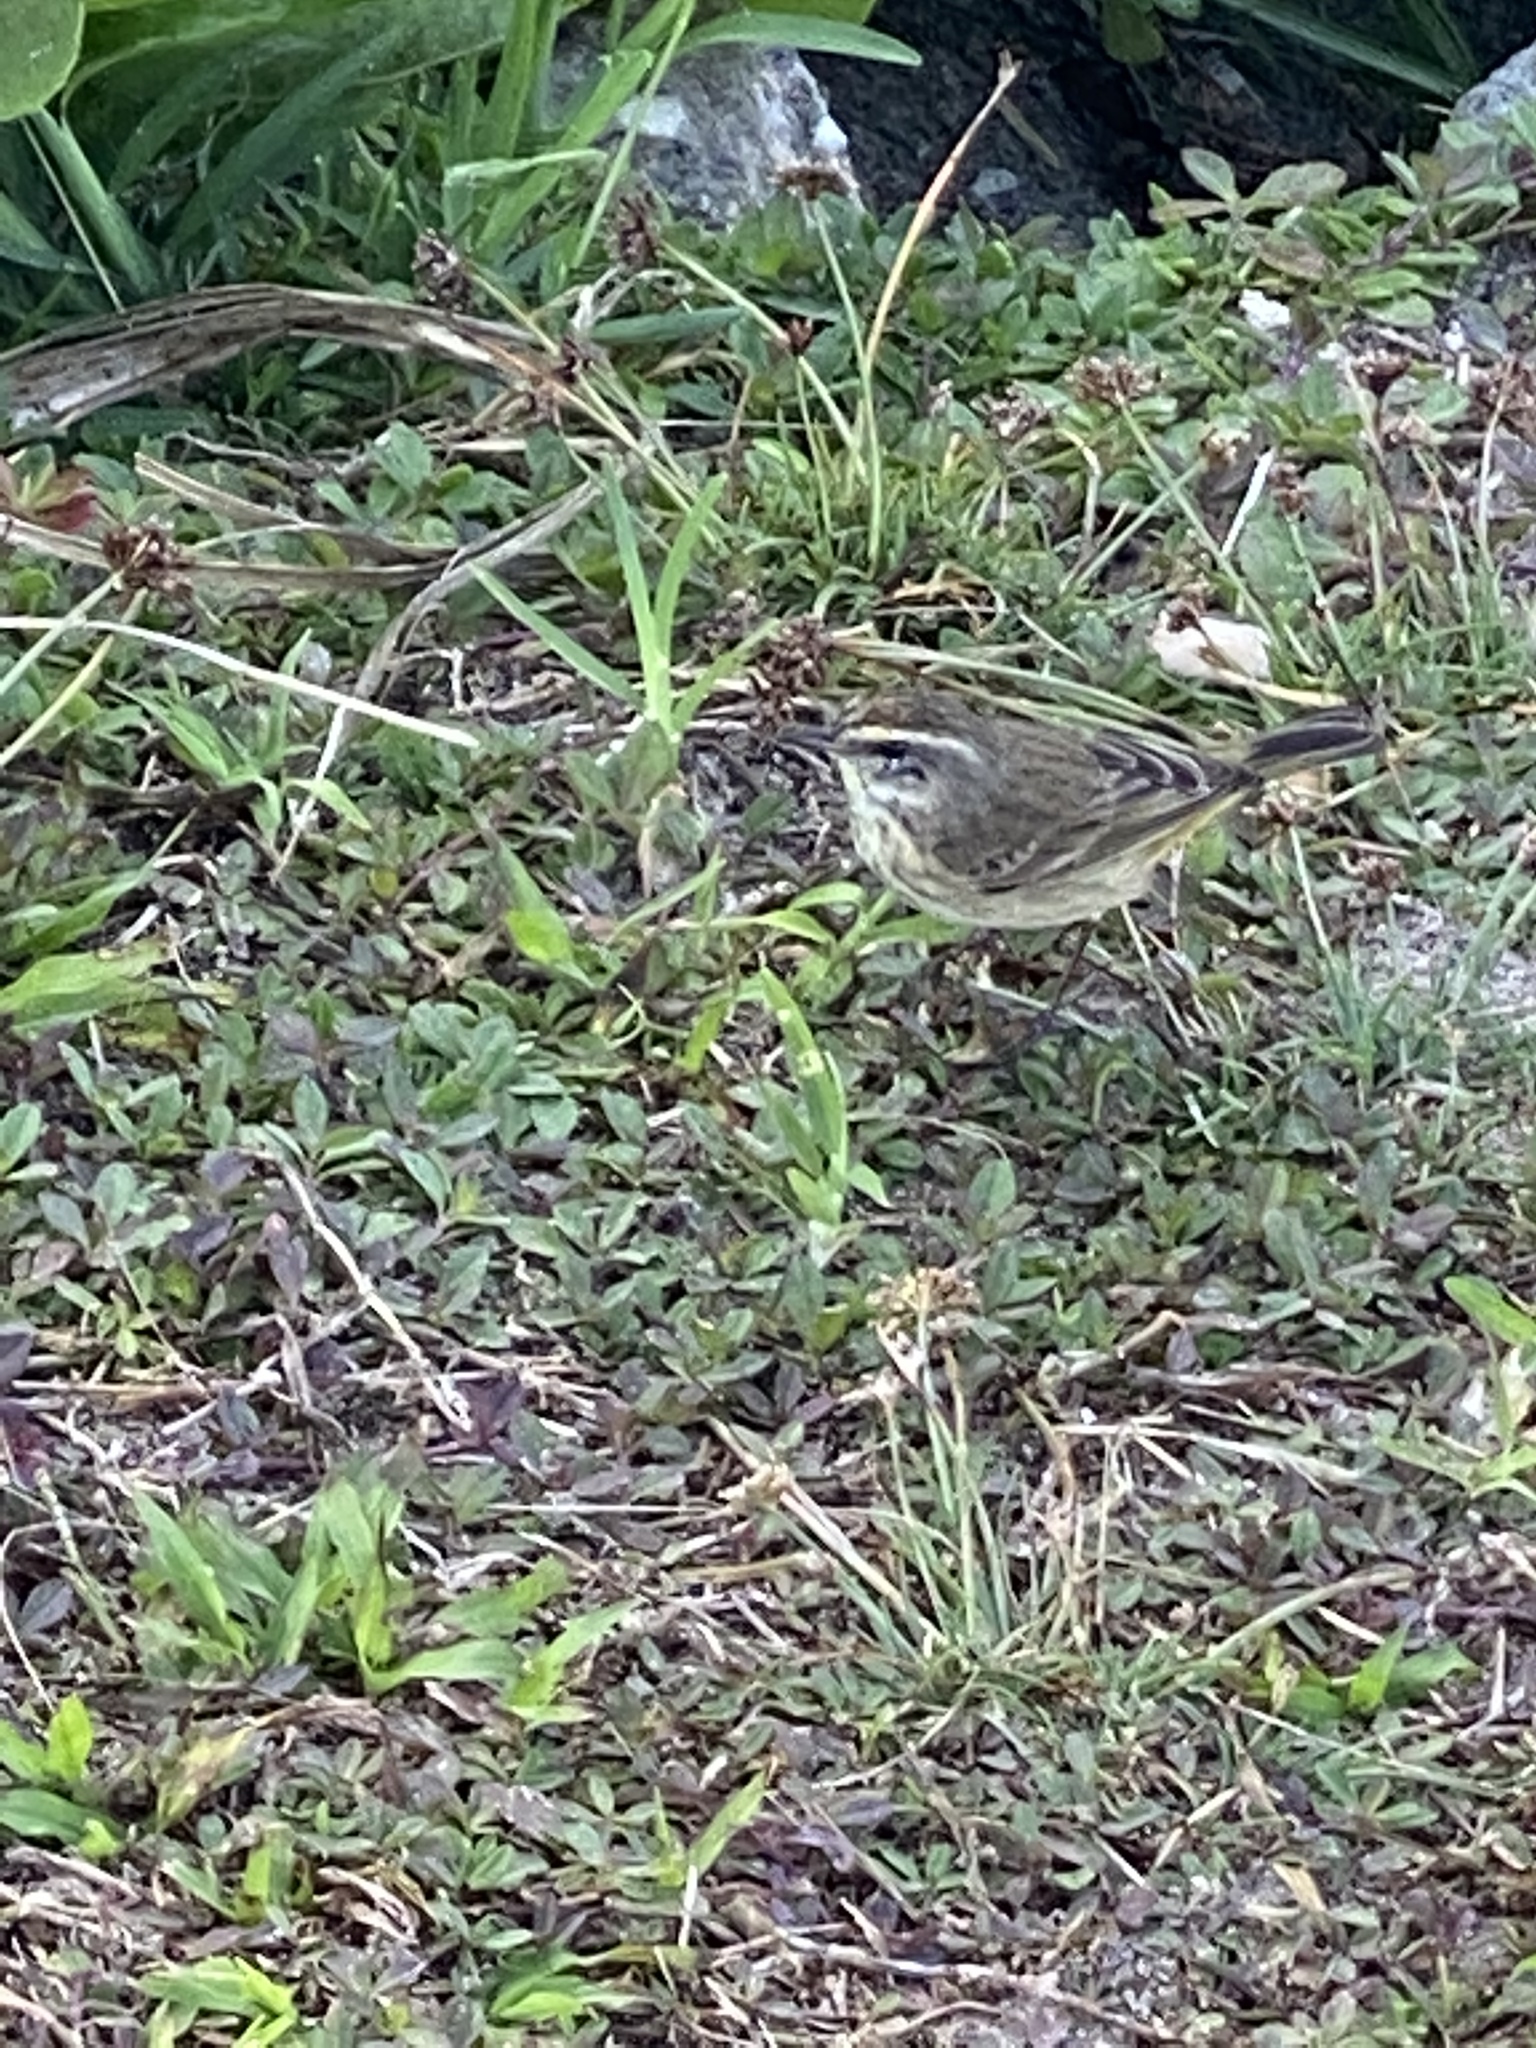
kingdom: Animalia
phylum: Chordata
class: Aves
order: Passeriformes
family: Parulidae
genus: Setophaga
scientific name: Setophaga palmarum
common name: Palm warbler
